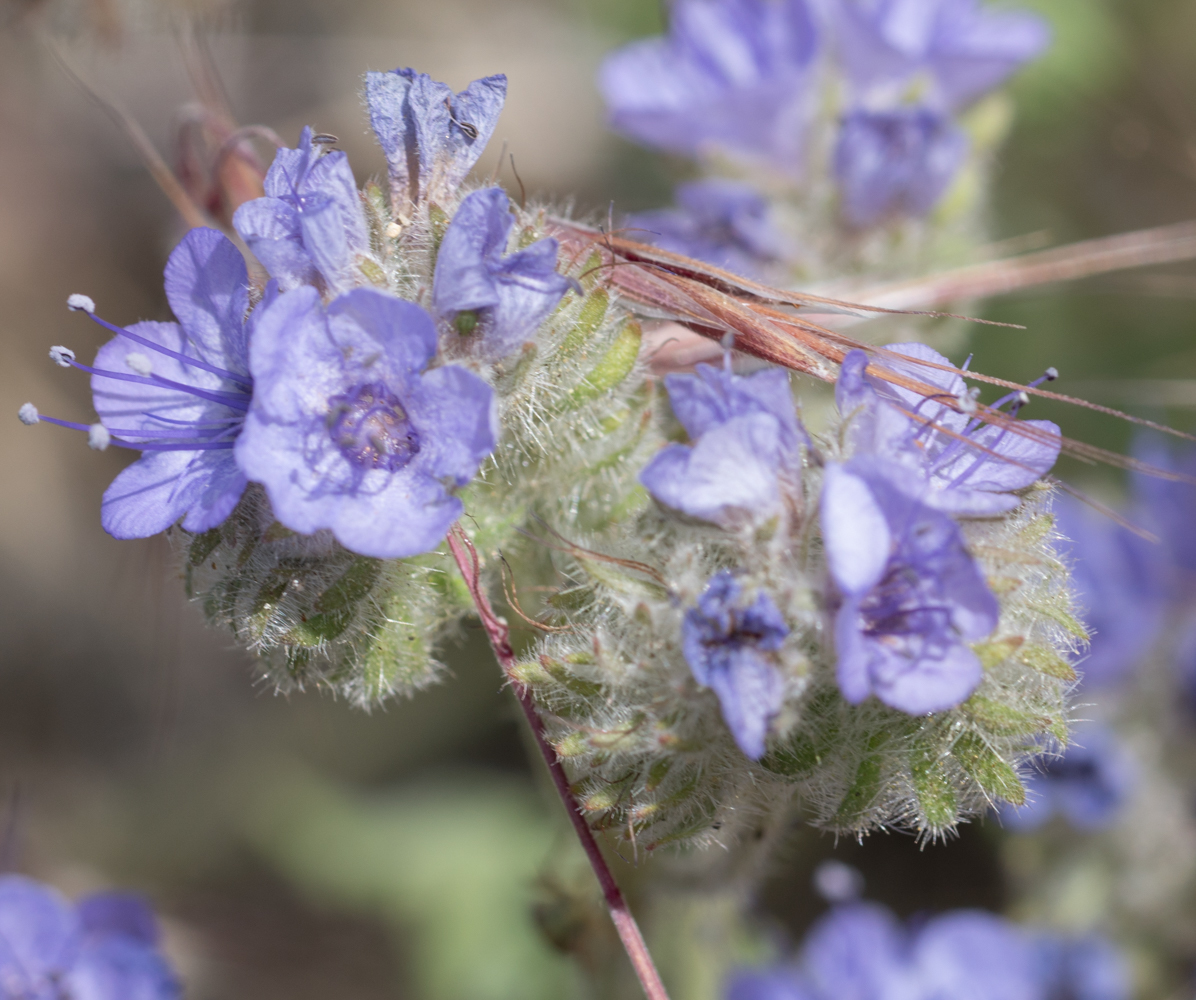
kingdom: Plantae
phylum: Tracheophyta
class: Magnoliopsida
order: Boraginales
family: Hydrophyllaceae
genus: Phacelia
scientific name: Phacelia distans
